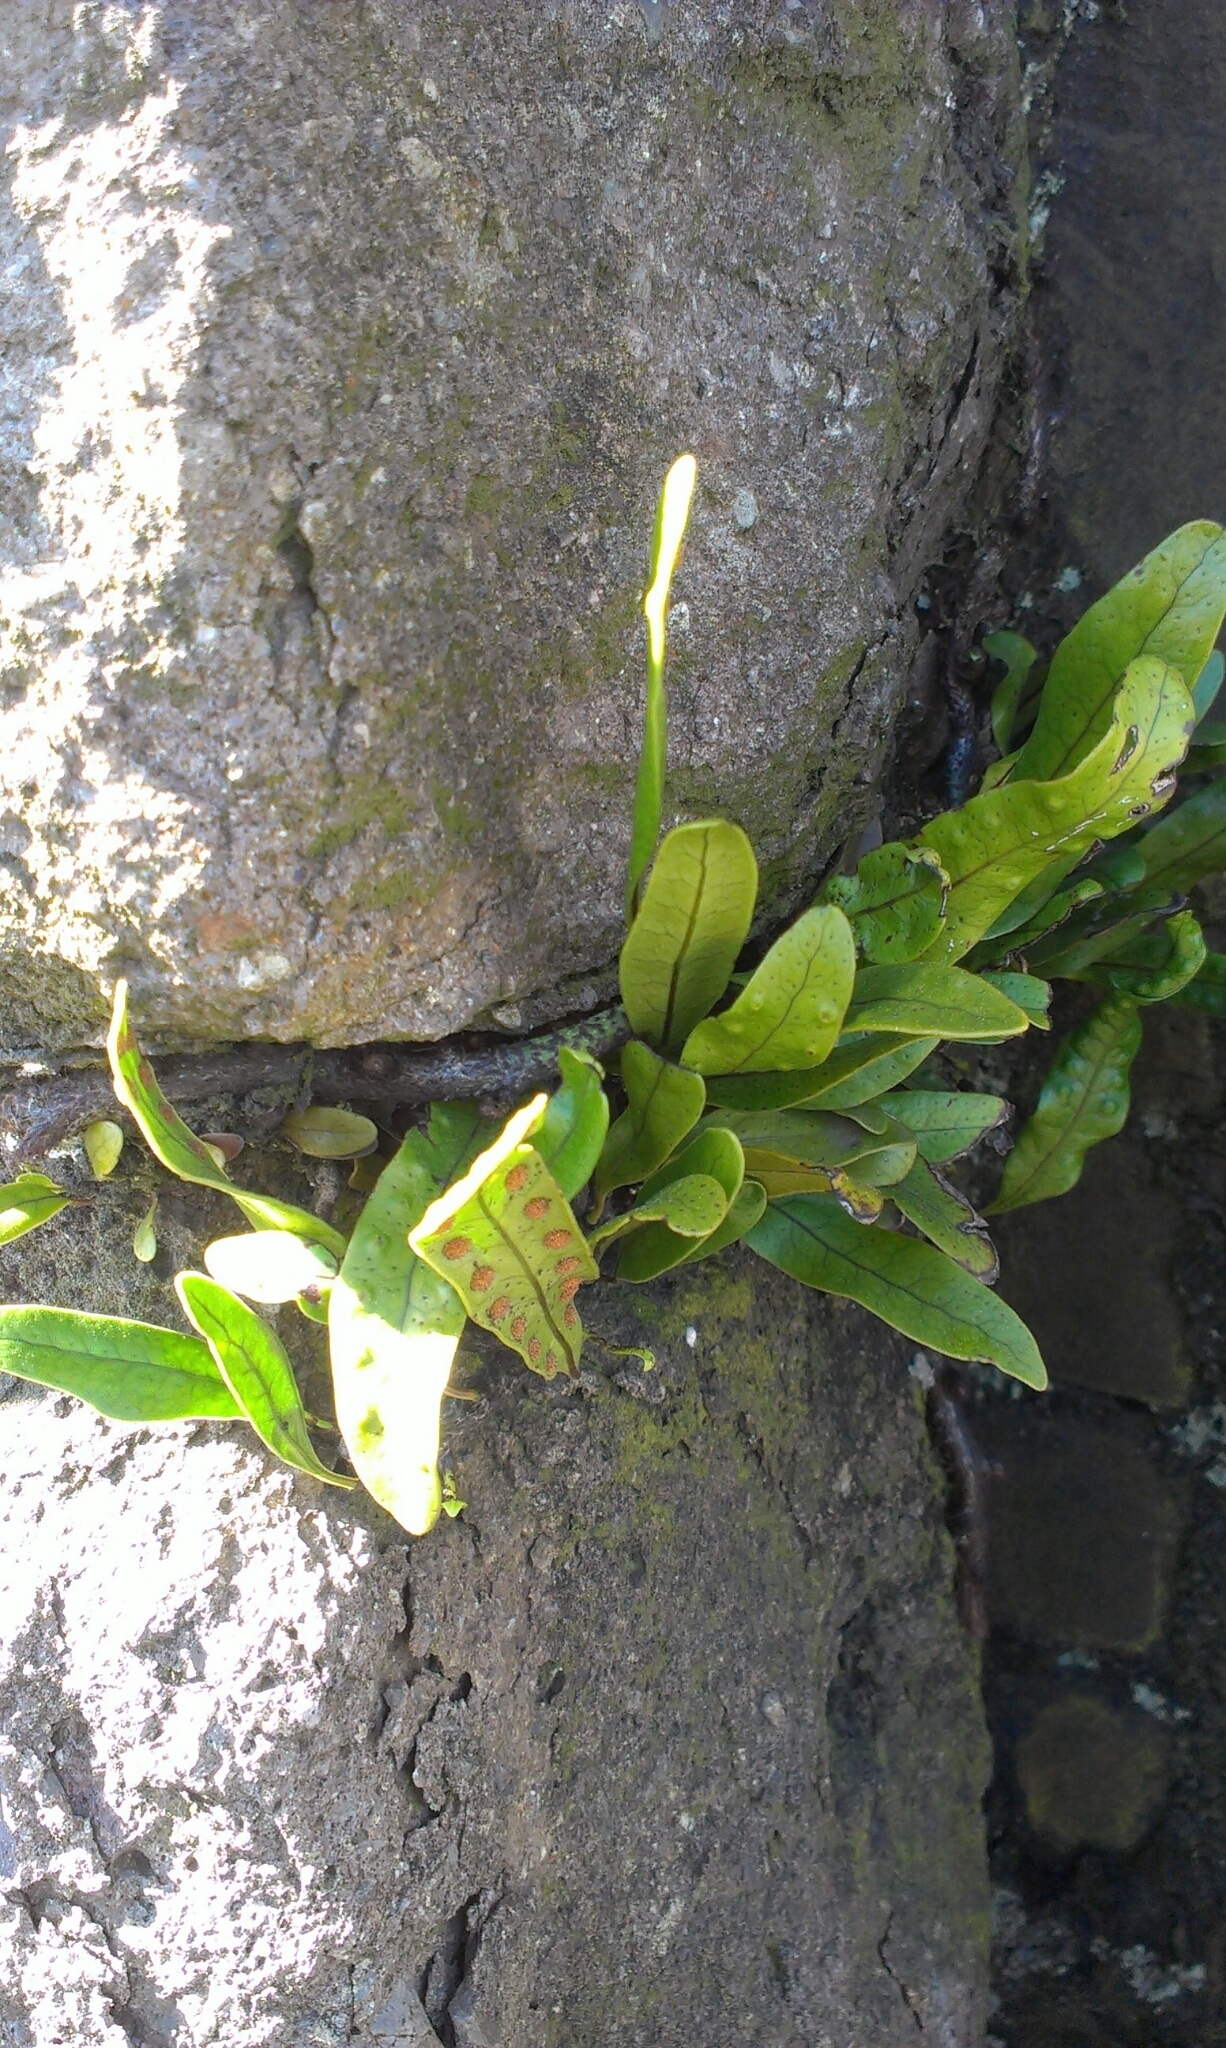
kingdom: Plantae
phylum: Tracheophyta
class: Polypodiopsida
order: Polypodiales
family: Polypodiaceae
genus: Lecanopteris
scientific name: Lecanopteris pustulata
